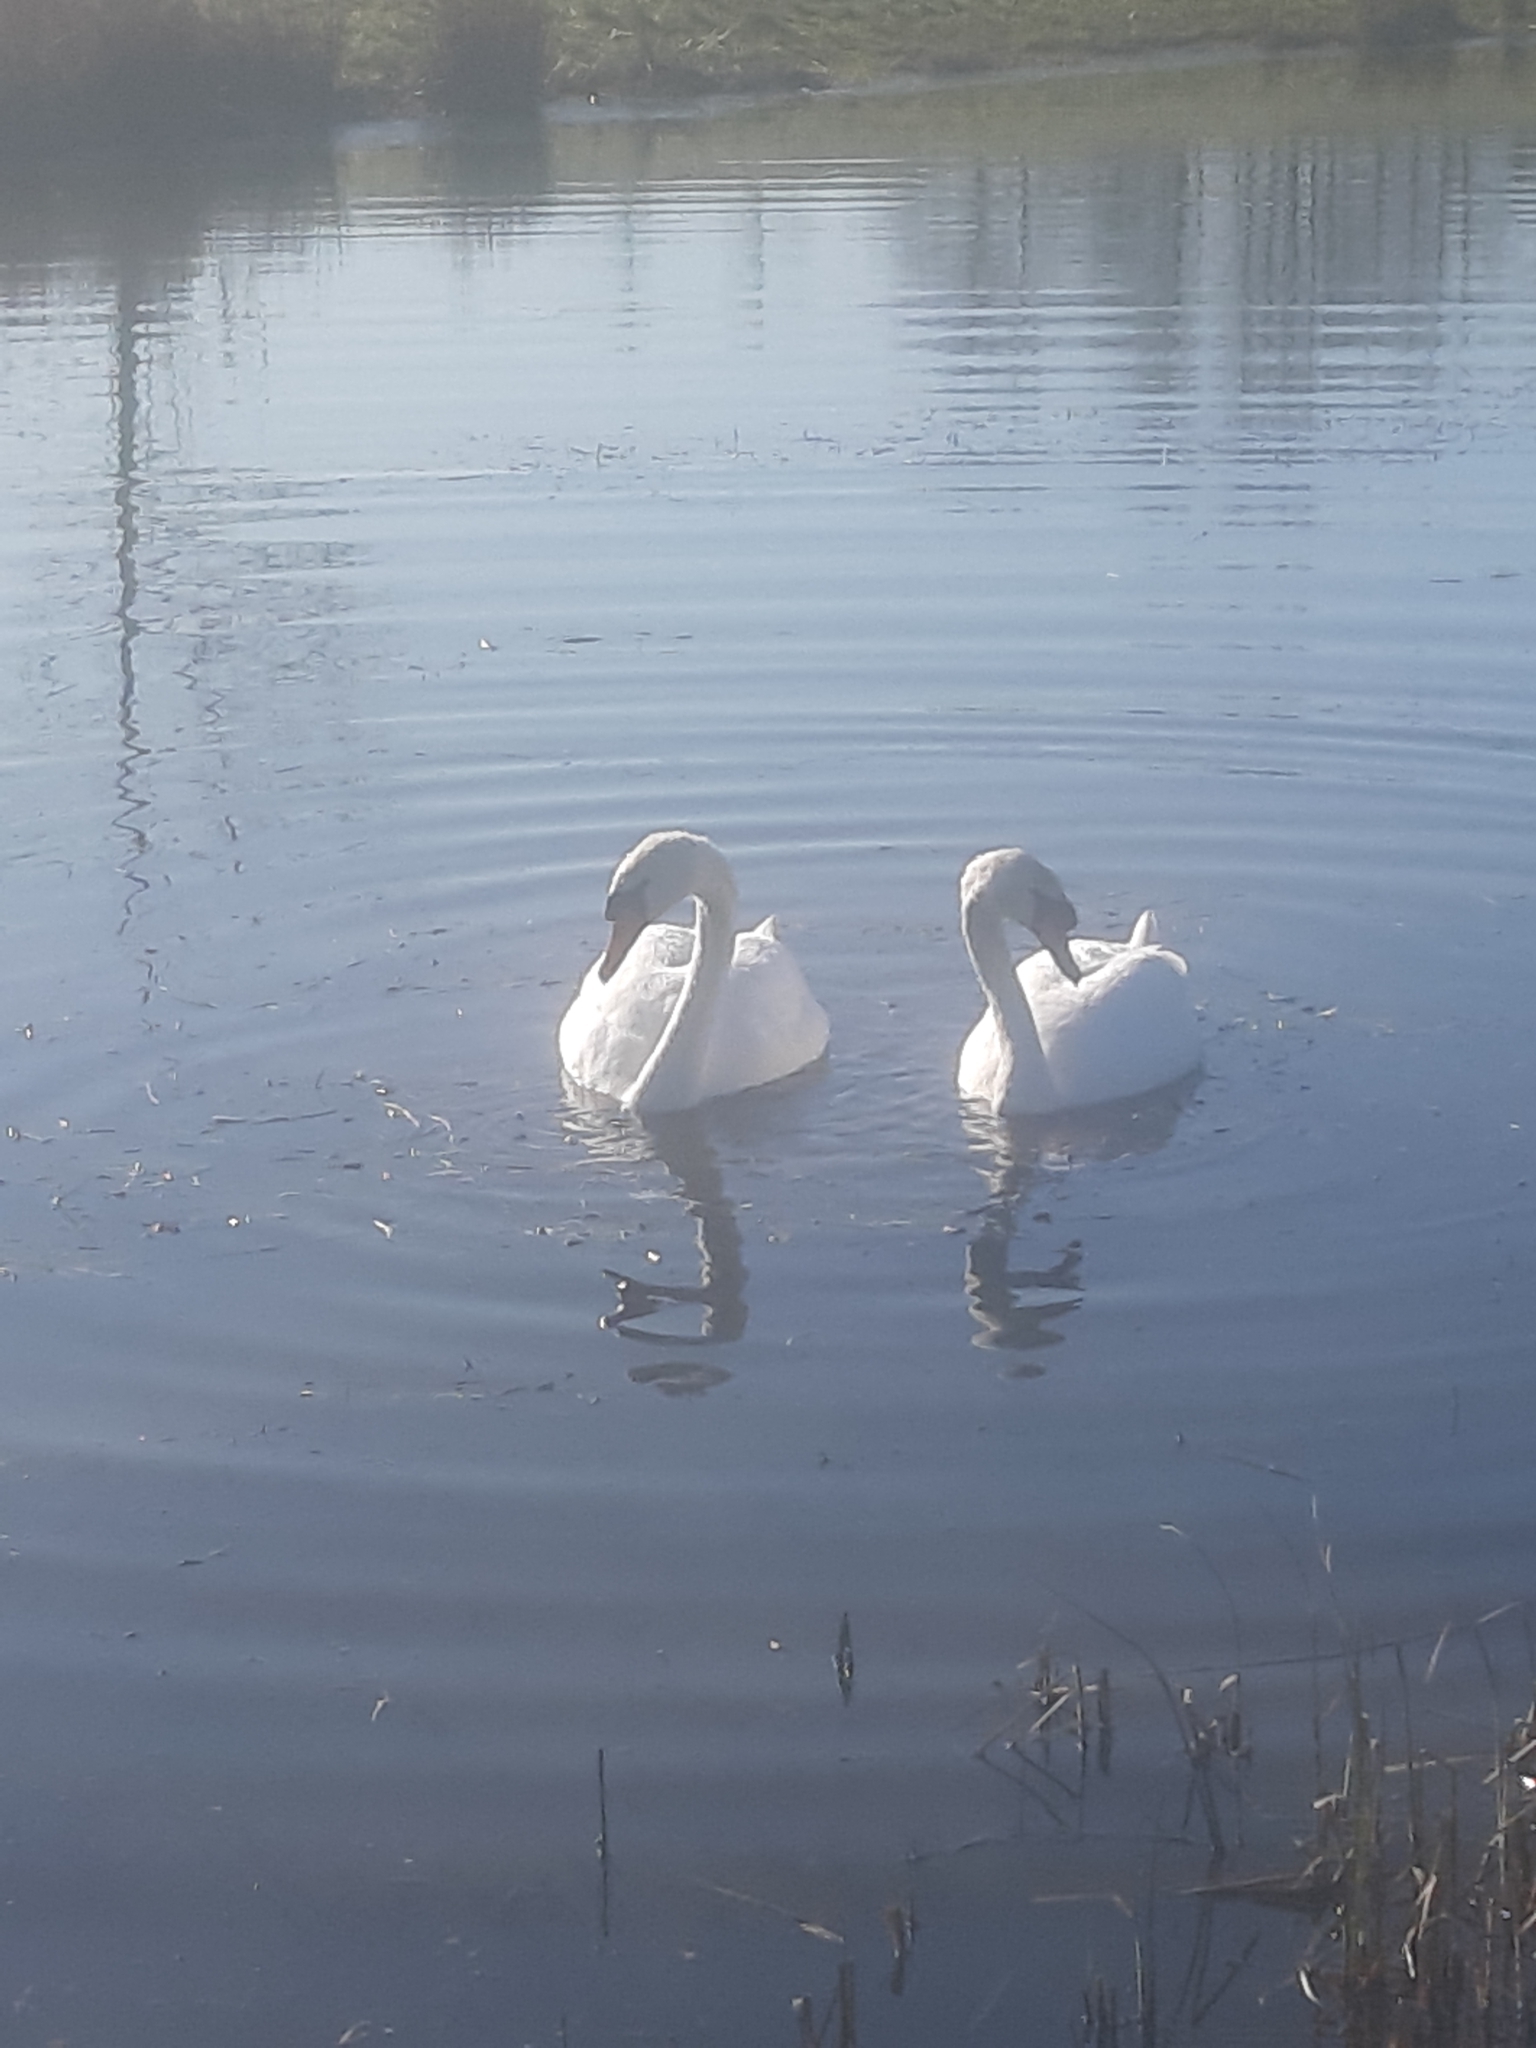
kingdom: Animalia
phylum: Chordata
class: Aves
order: Anseriformes
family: Anatidae
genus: Cygnus
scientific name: Cygnus olor
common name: Mute swan
